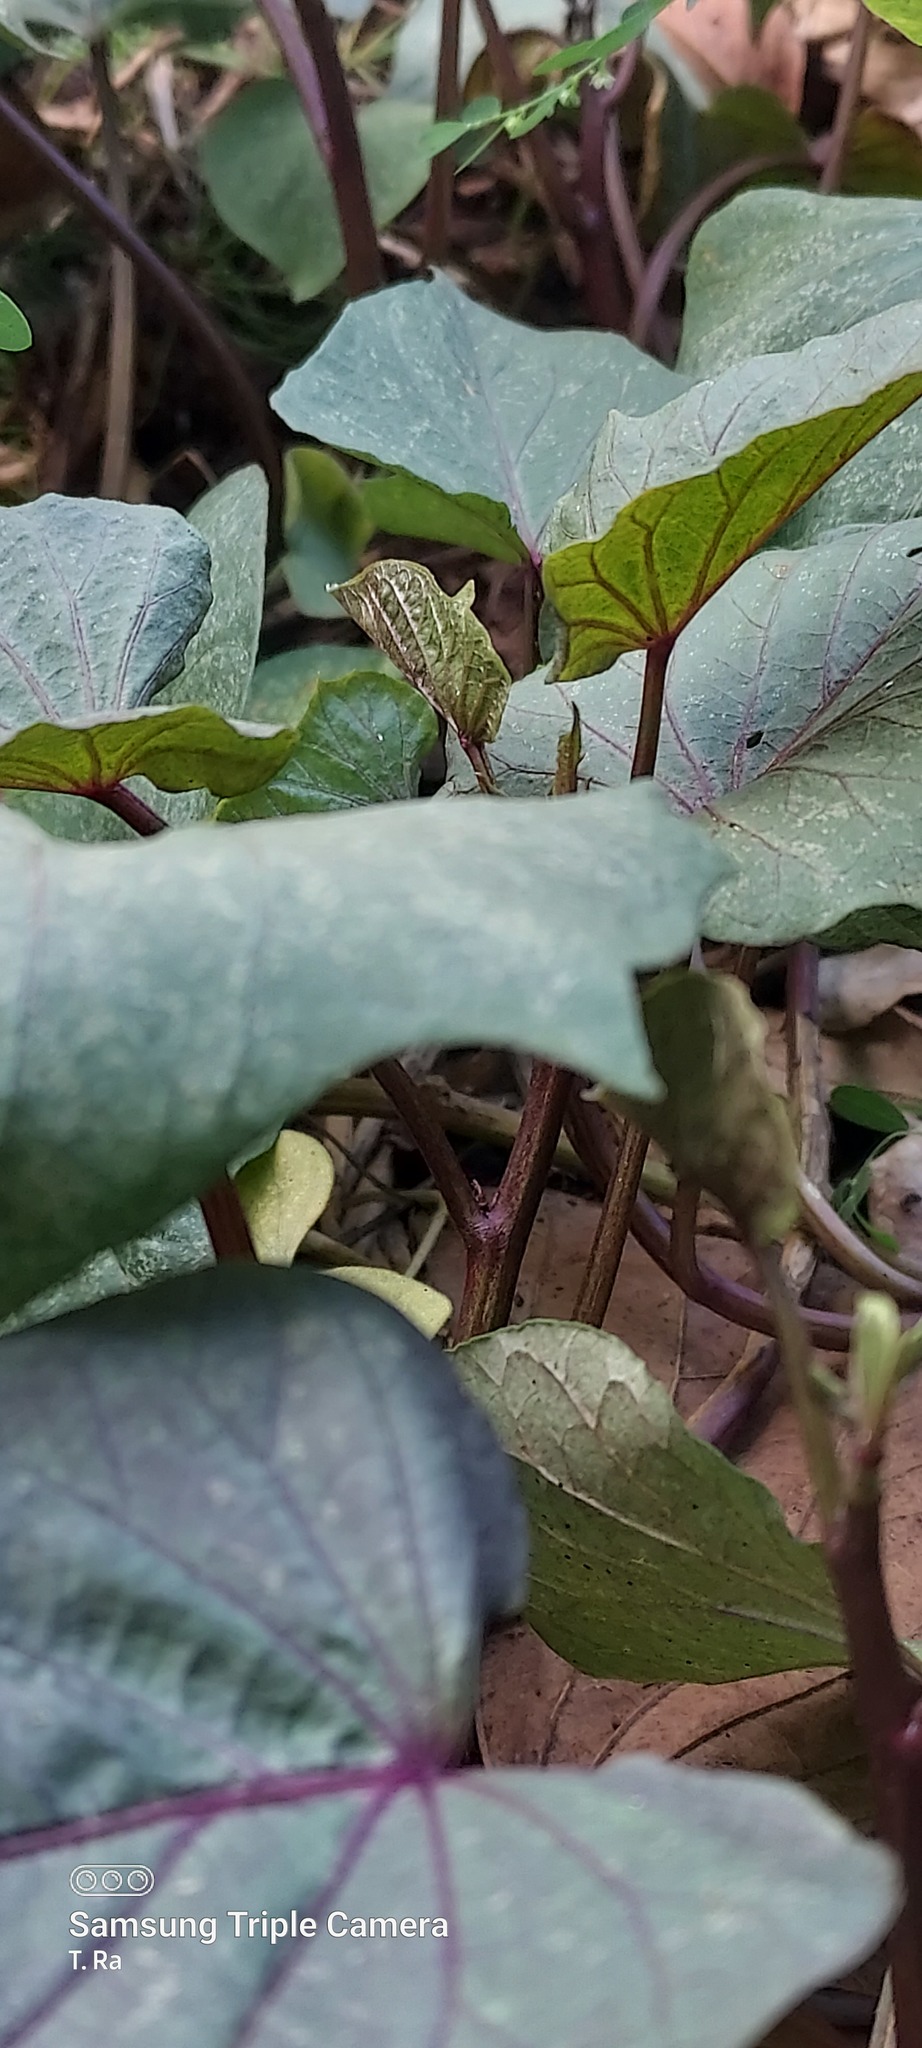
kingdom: Plantae
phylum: Tracheophyta
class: Magnoliopsida
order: Solanales
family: Convolvulaceae
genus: Ipomoea
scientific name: Ipomoea batatas
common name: Sweet-potato
